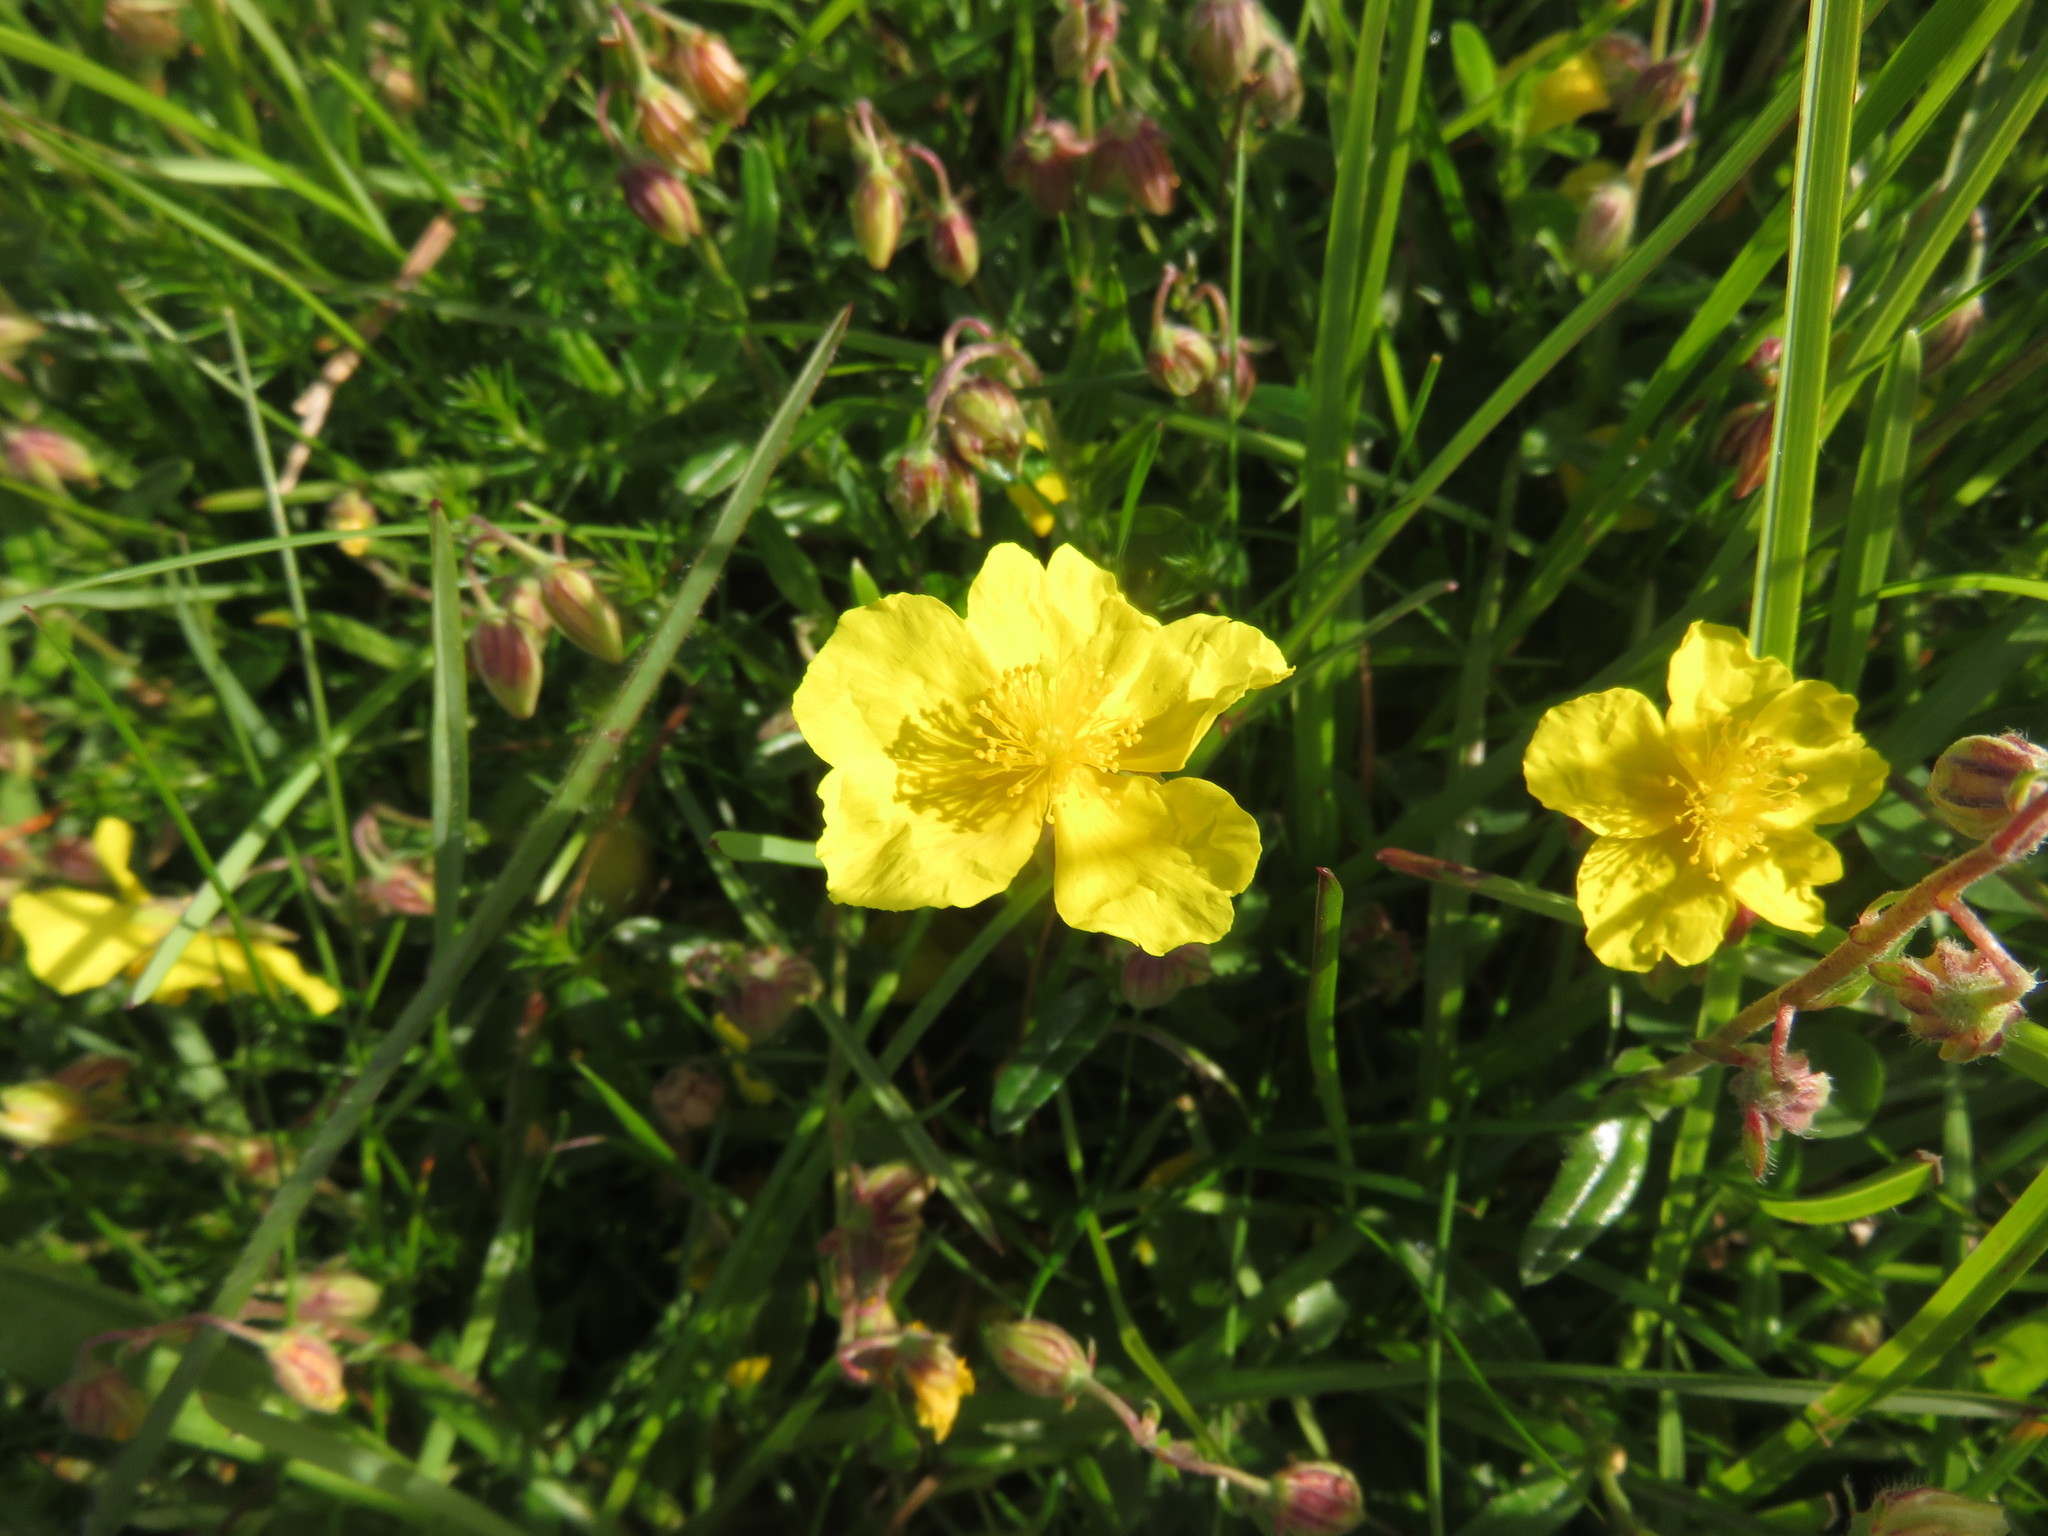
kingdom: Plantae
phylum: Tracheophyta
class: Magnoliopsida
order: Malvales
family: Cistaceae
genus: Helianthemum
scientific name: Helianthemum nummularium
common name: Common rock-rose
